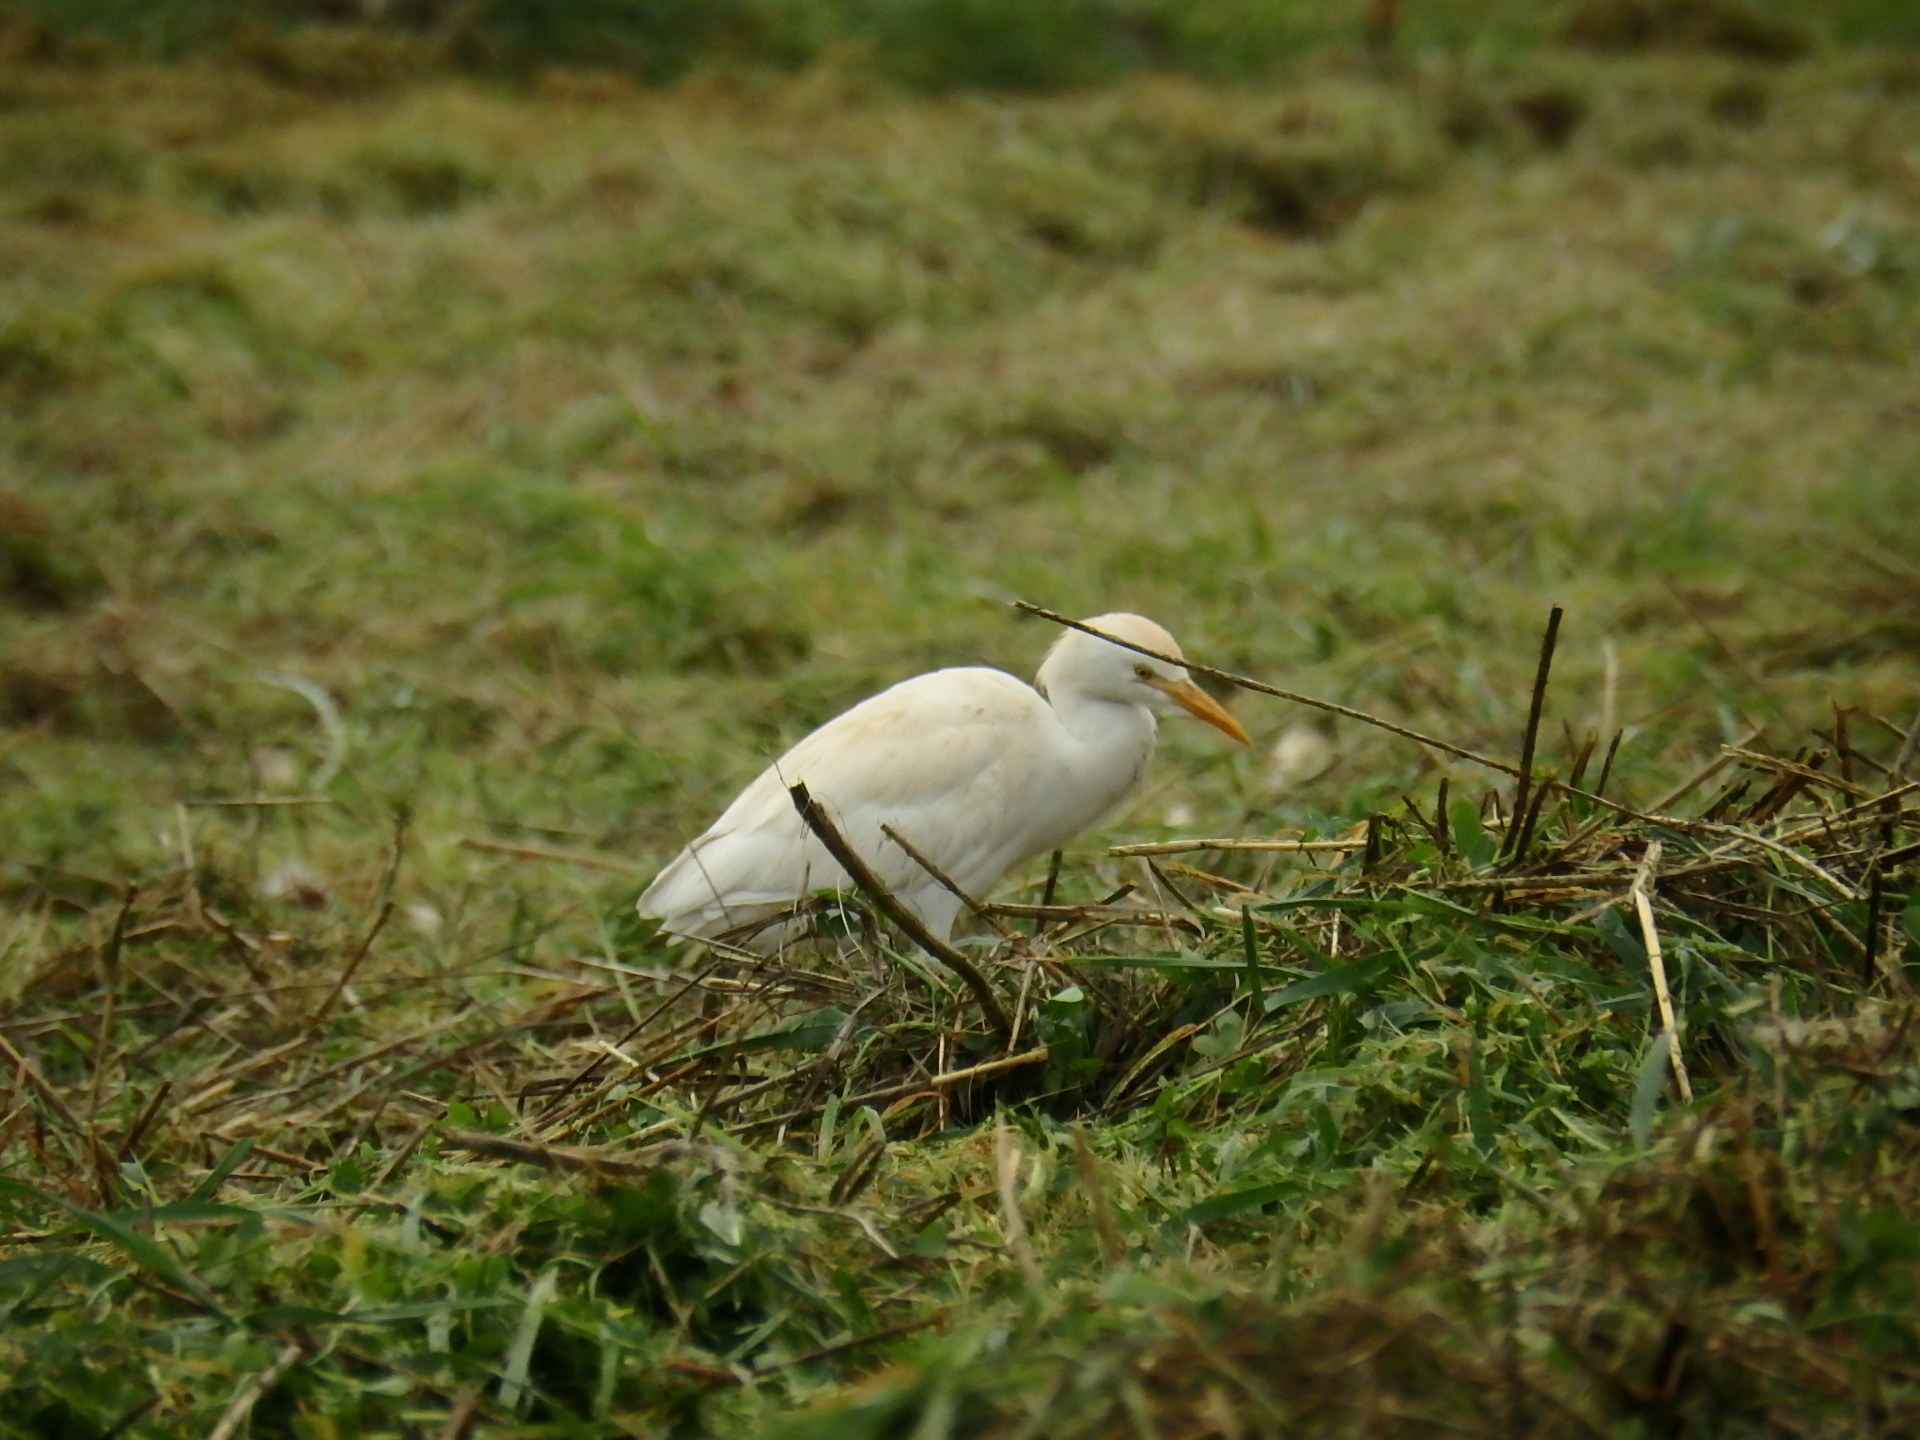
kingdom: Animalia
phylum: Chordata
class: Aves
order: Pelecaniformes
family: Ardeidae
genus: Bubulcus
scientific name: Bubulcus ibis
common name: Cattle egret
